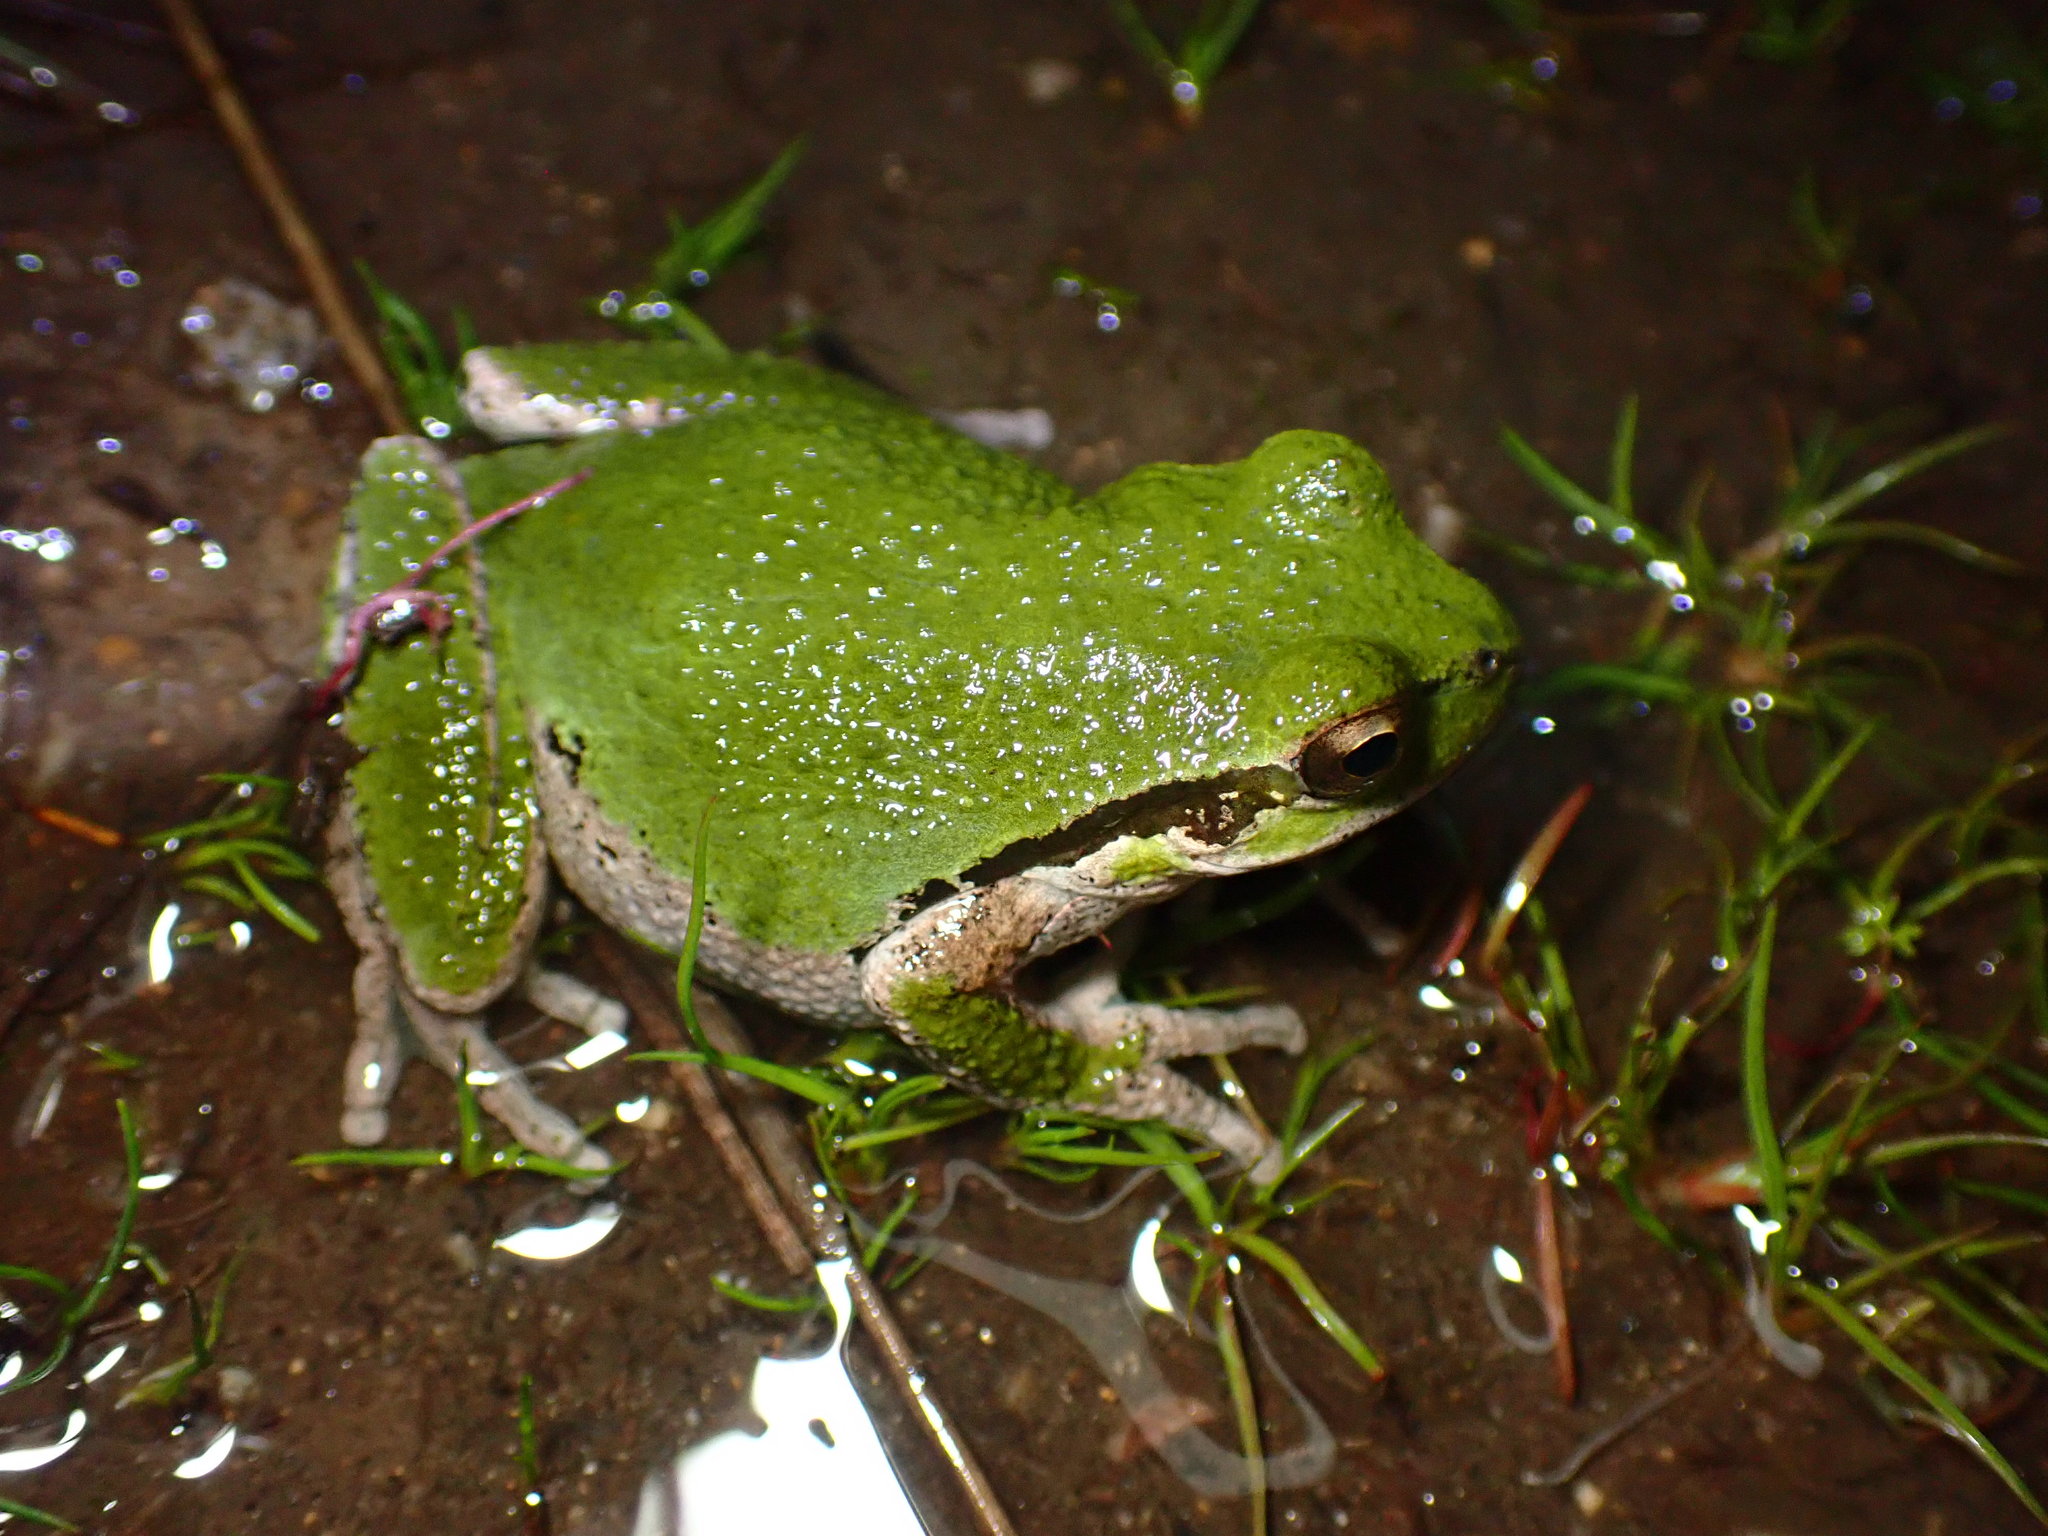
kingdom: Animalia
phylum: Chordata
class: Amphibia
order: Anura
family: Hylidae
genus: Pseudacris
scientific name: Pseudacris regilla
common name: Pacific chorus frog
